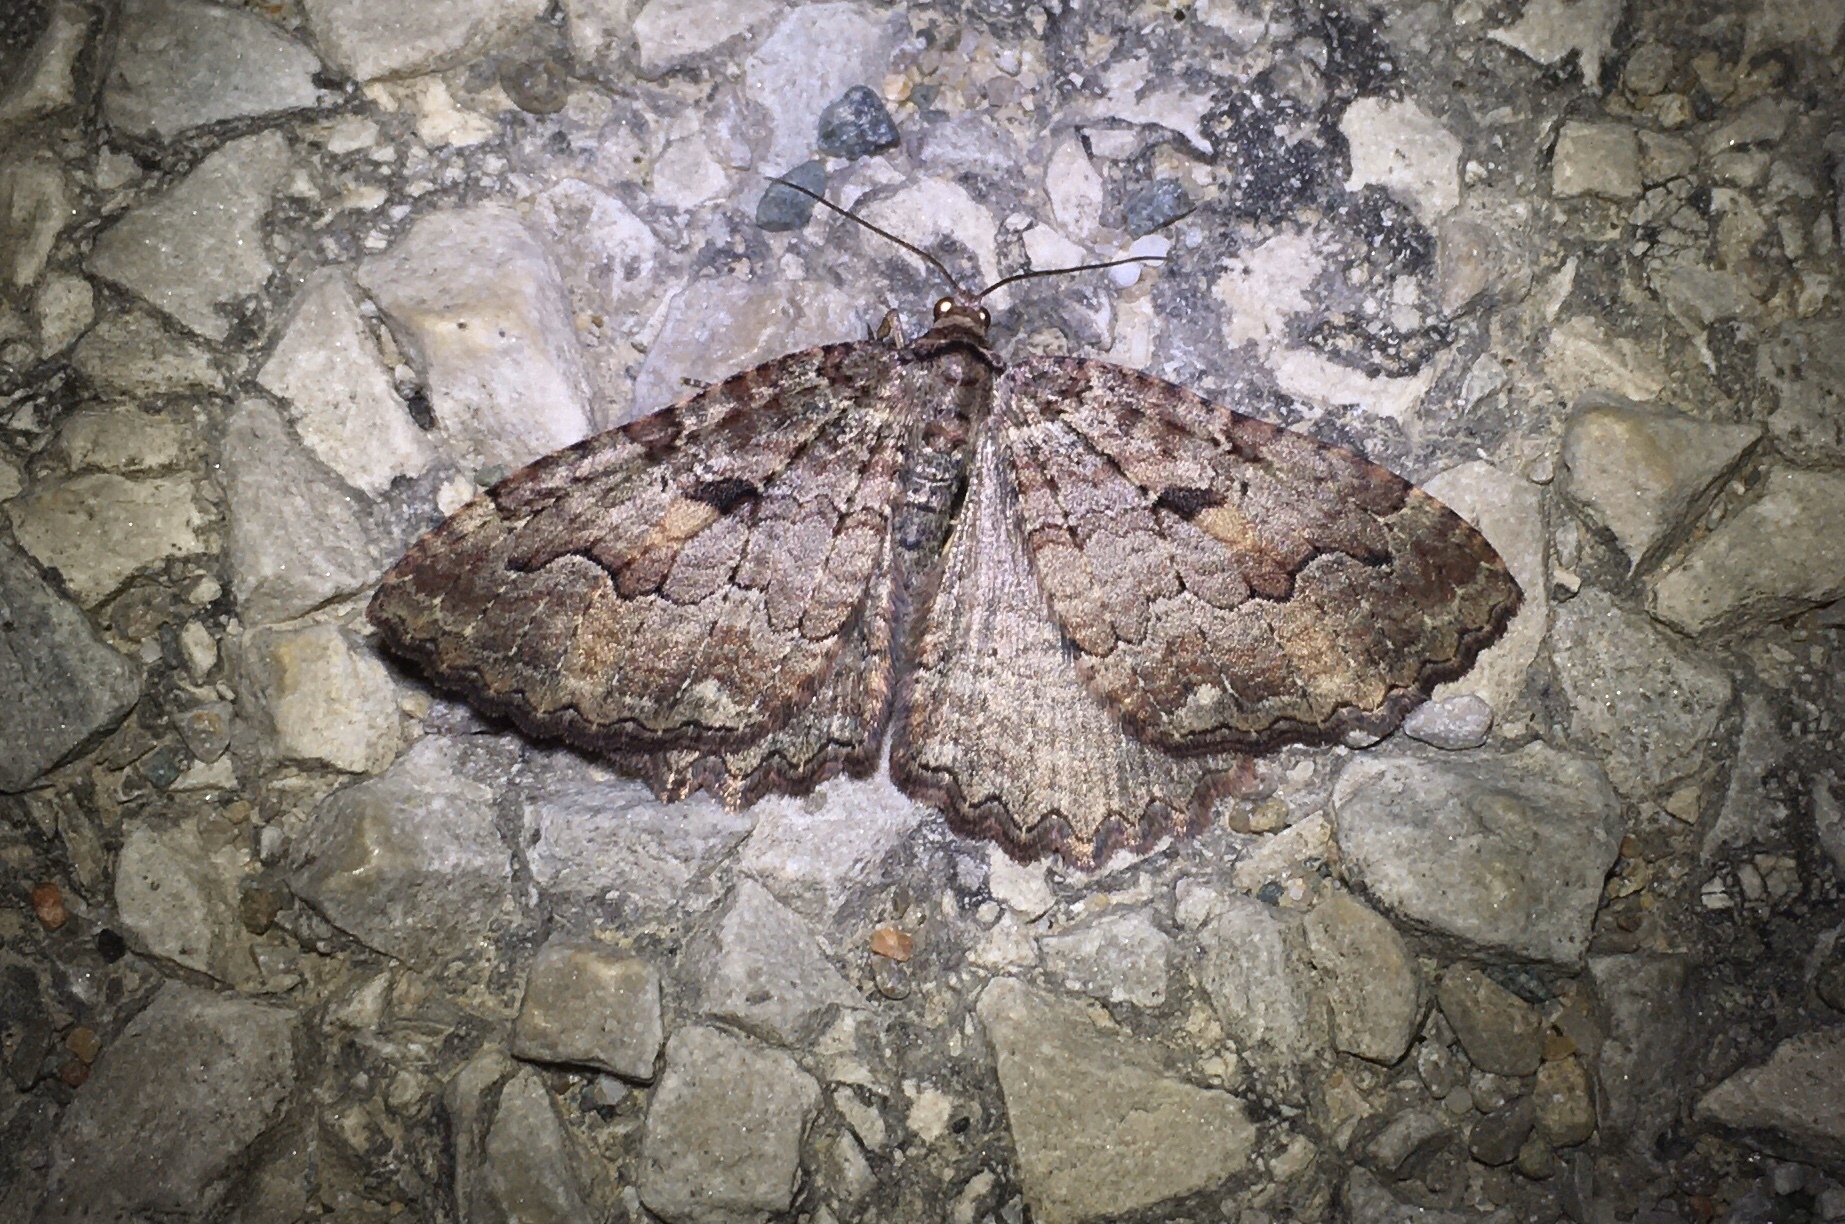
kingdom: Animalia
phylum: Arthropoda
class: Insecta
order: Lepidoptera
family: Geometridae
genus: Triphosa
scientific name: Triphosa haesitata
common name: Tissue moth
